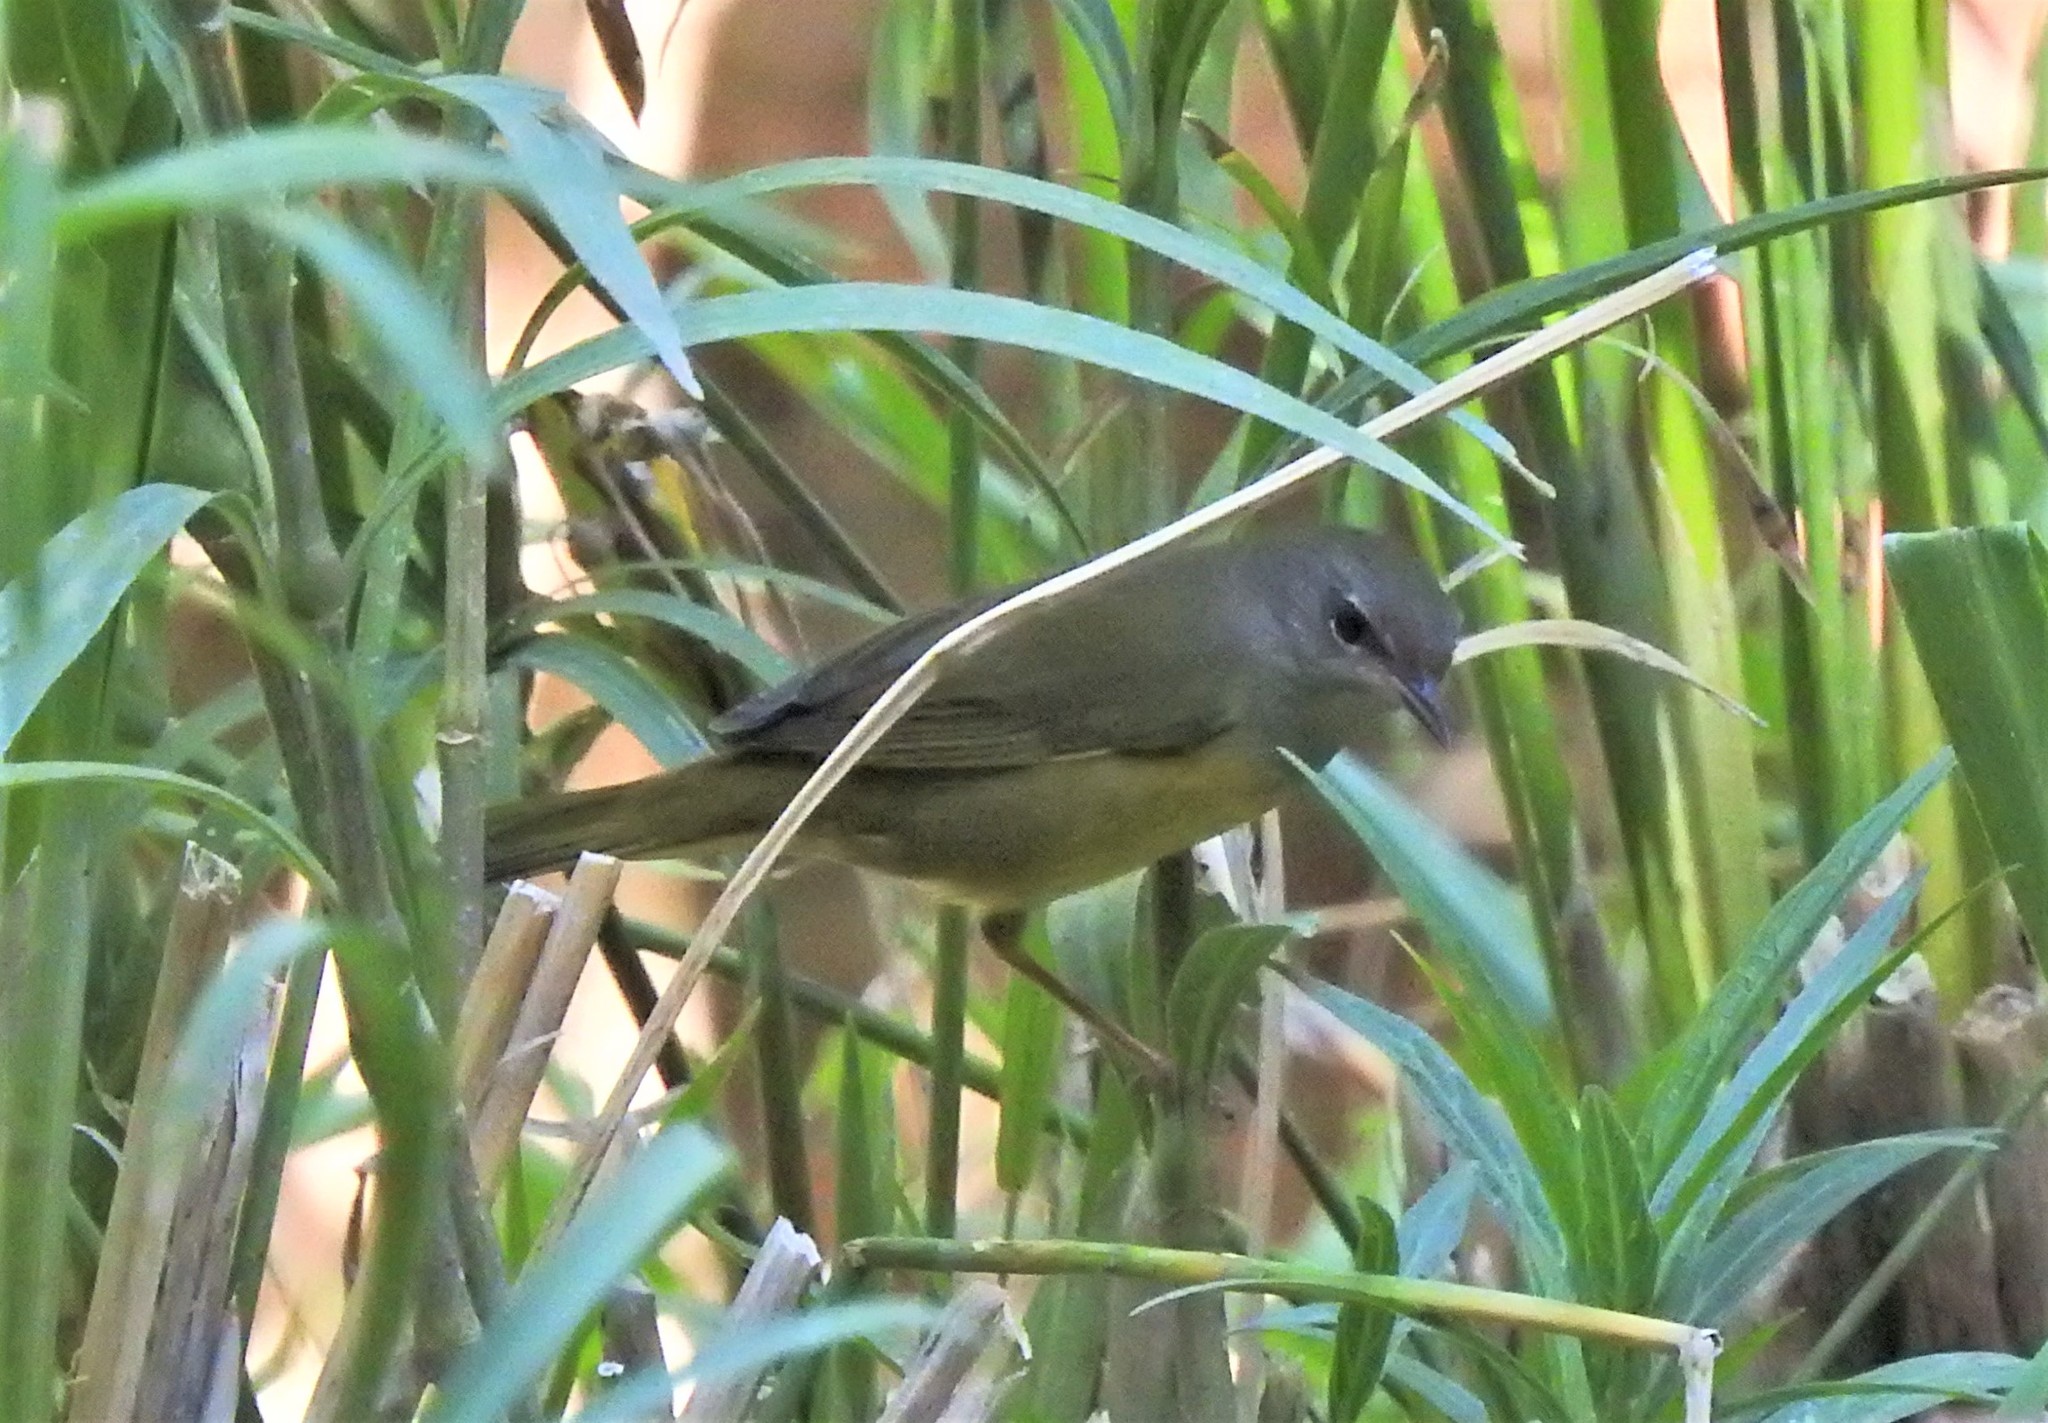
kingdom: Animalia
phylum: Chordata
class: Aves
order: Passeriformes
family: Parulidae
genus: Geothlypis
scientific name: Geothlypis philadelphia
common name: Mourning warbler
